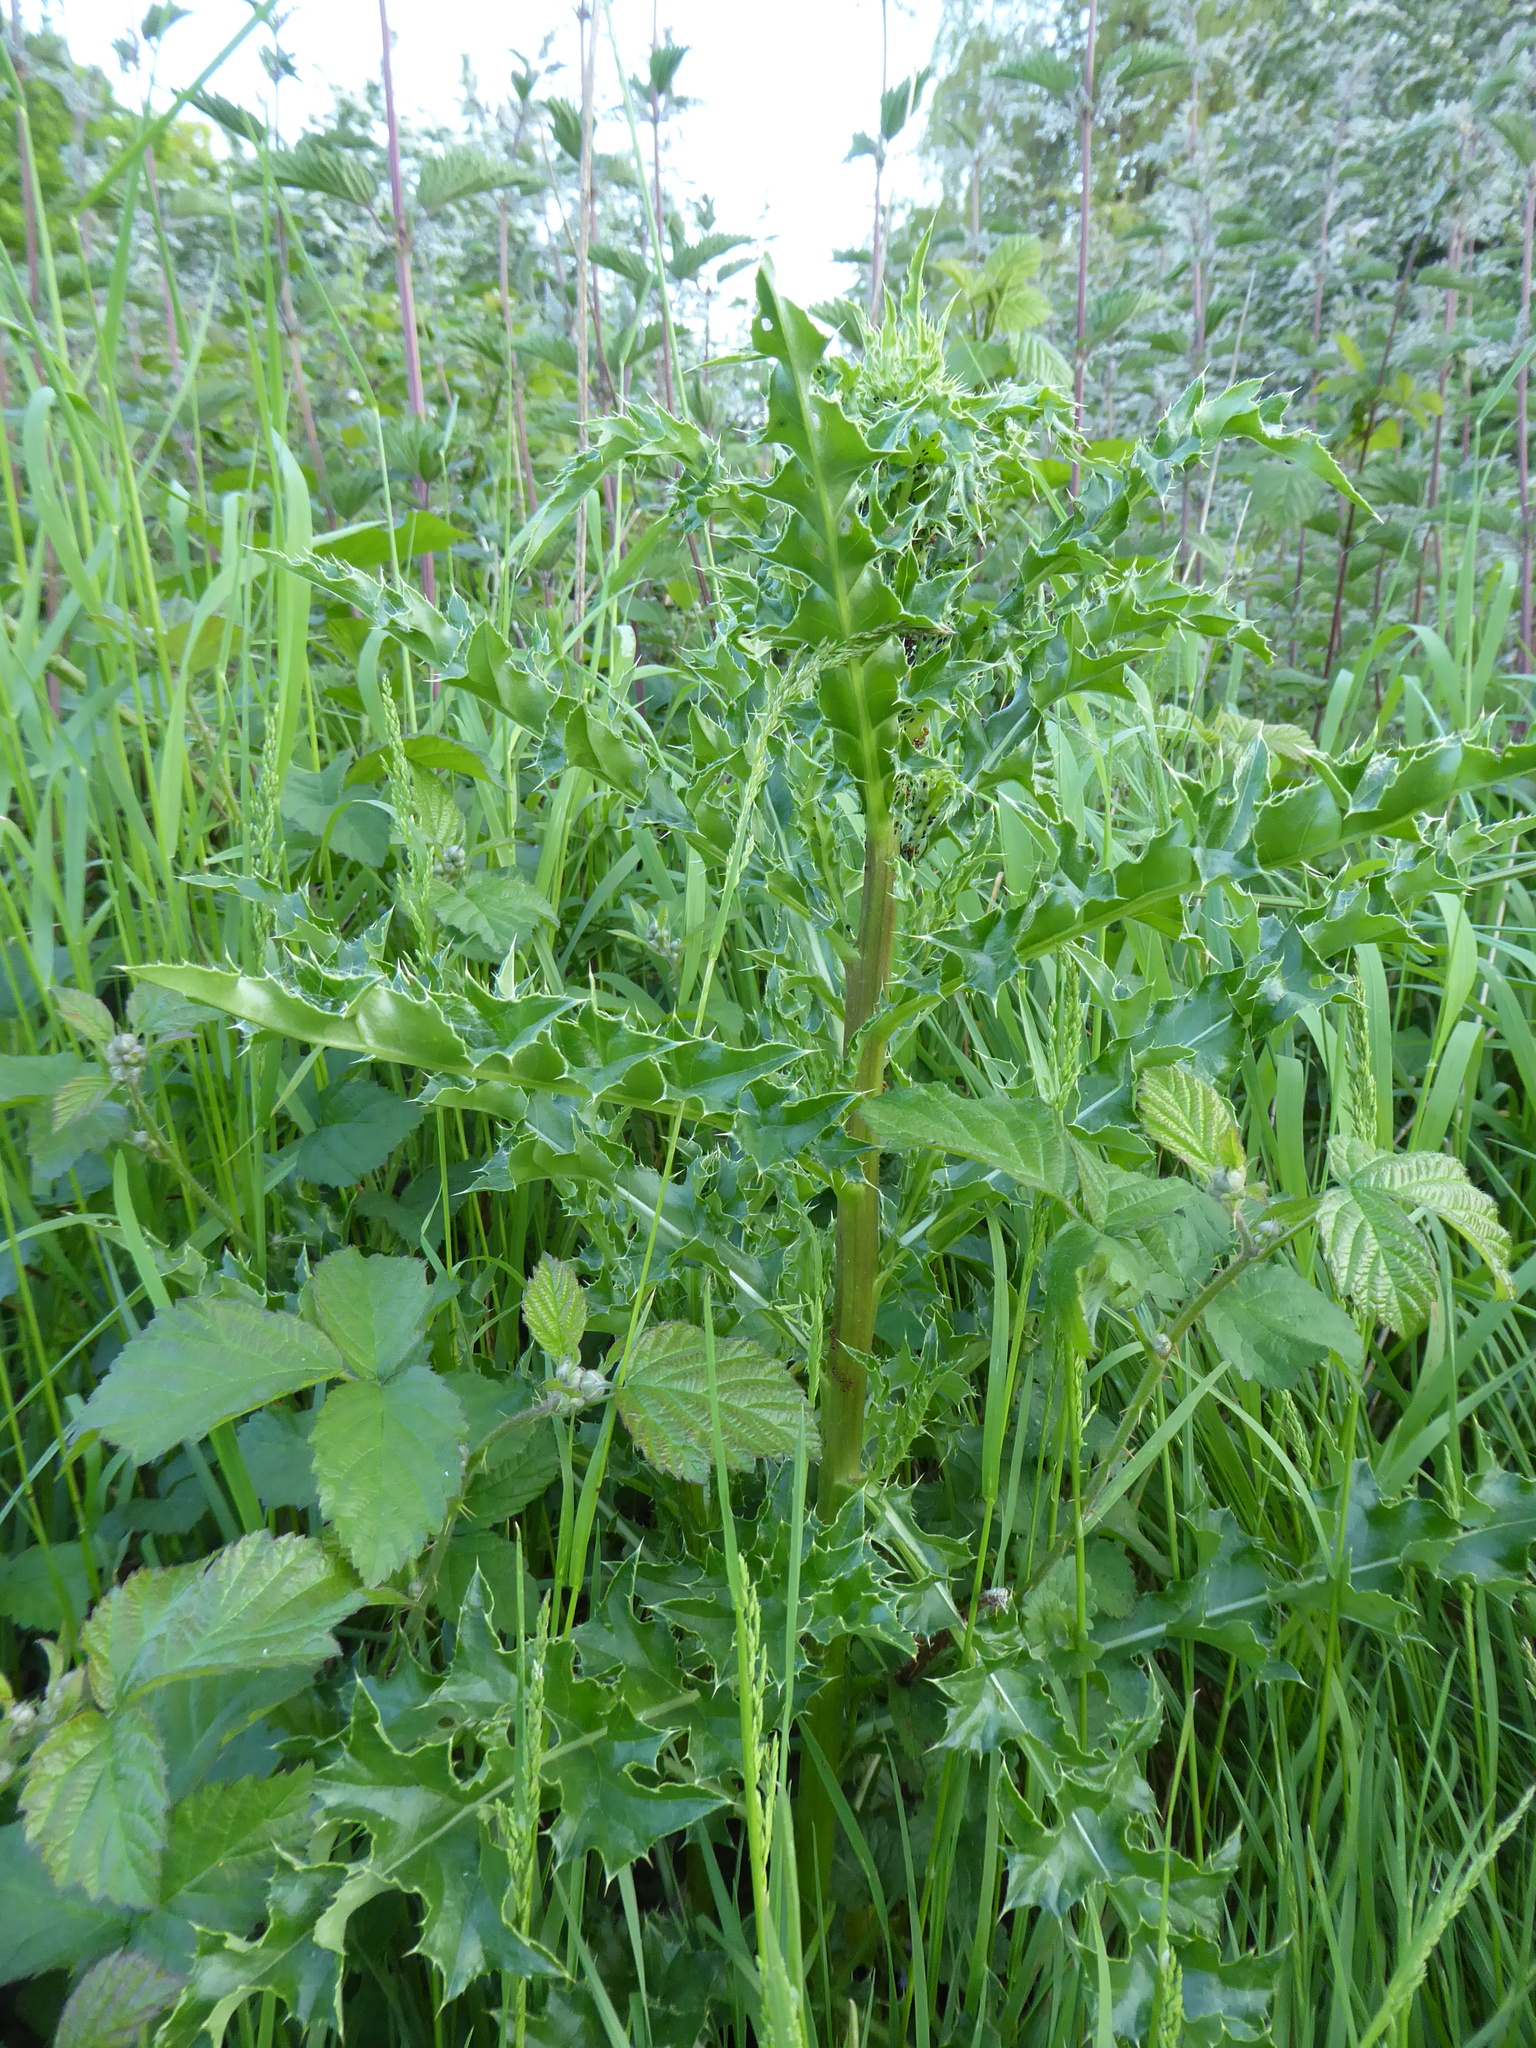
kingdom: Plantae
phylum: Tracheophyta
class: Magnoliopsida
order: Asterales
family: Asteraceae
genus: Cirsium
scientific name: Cirsium arvense
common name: Creeping thistle
